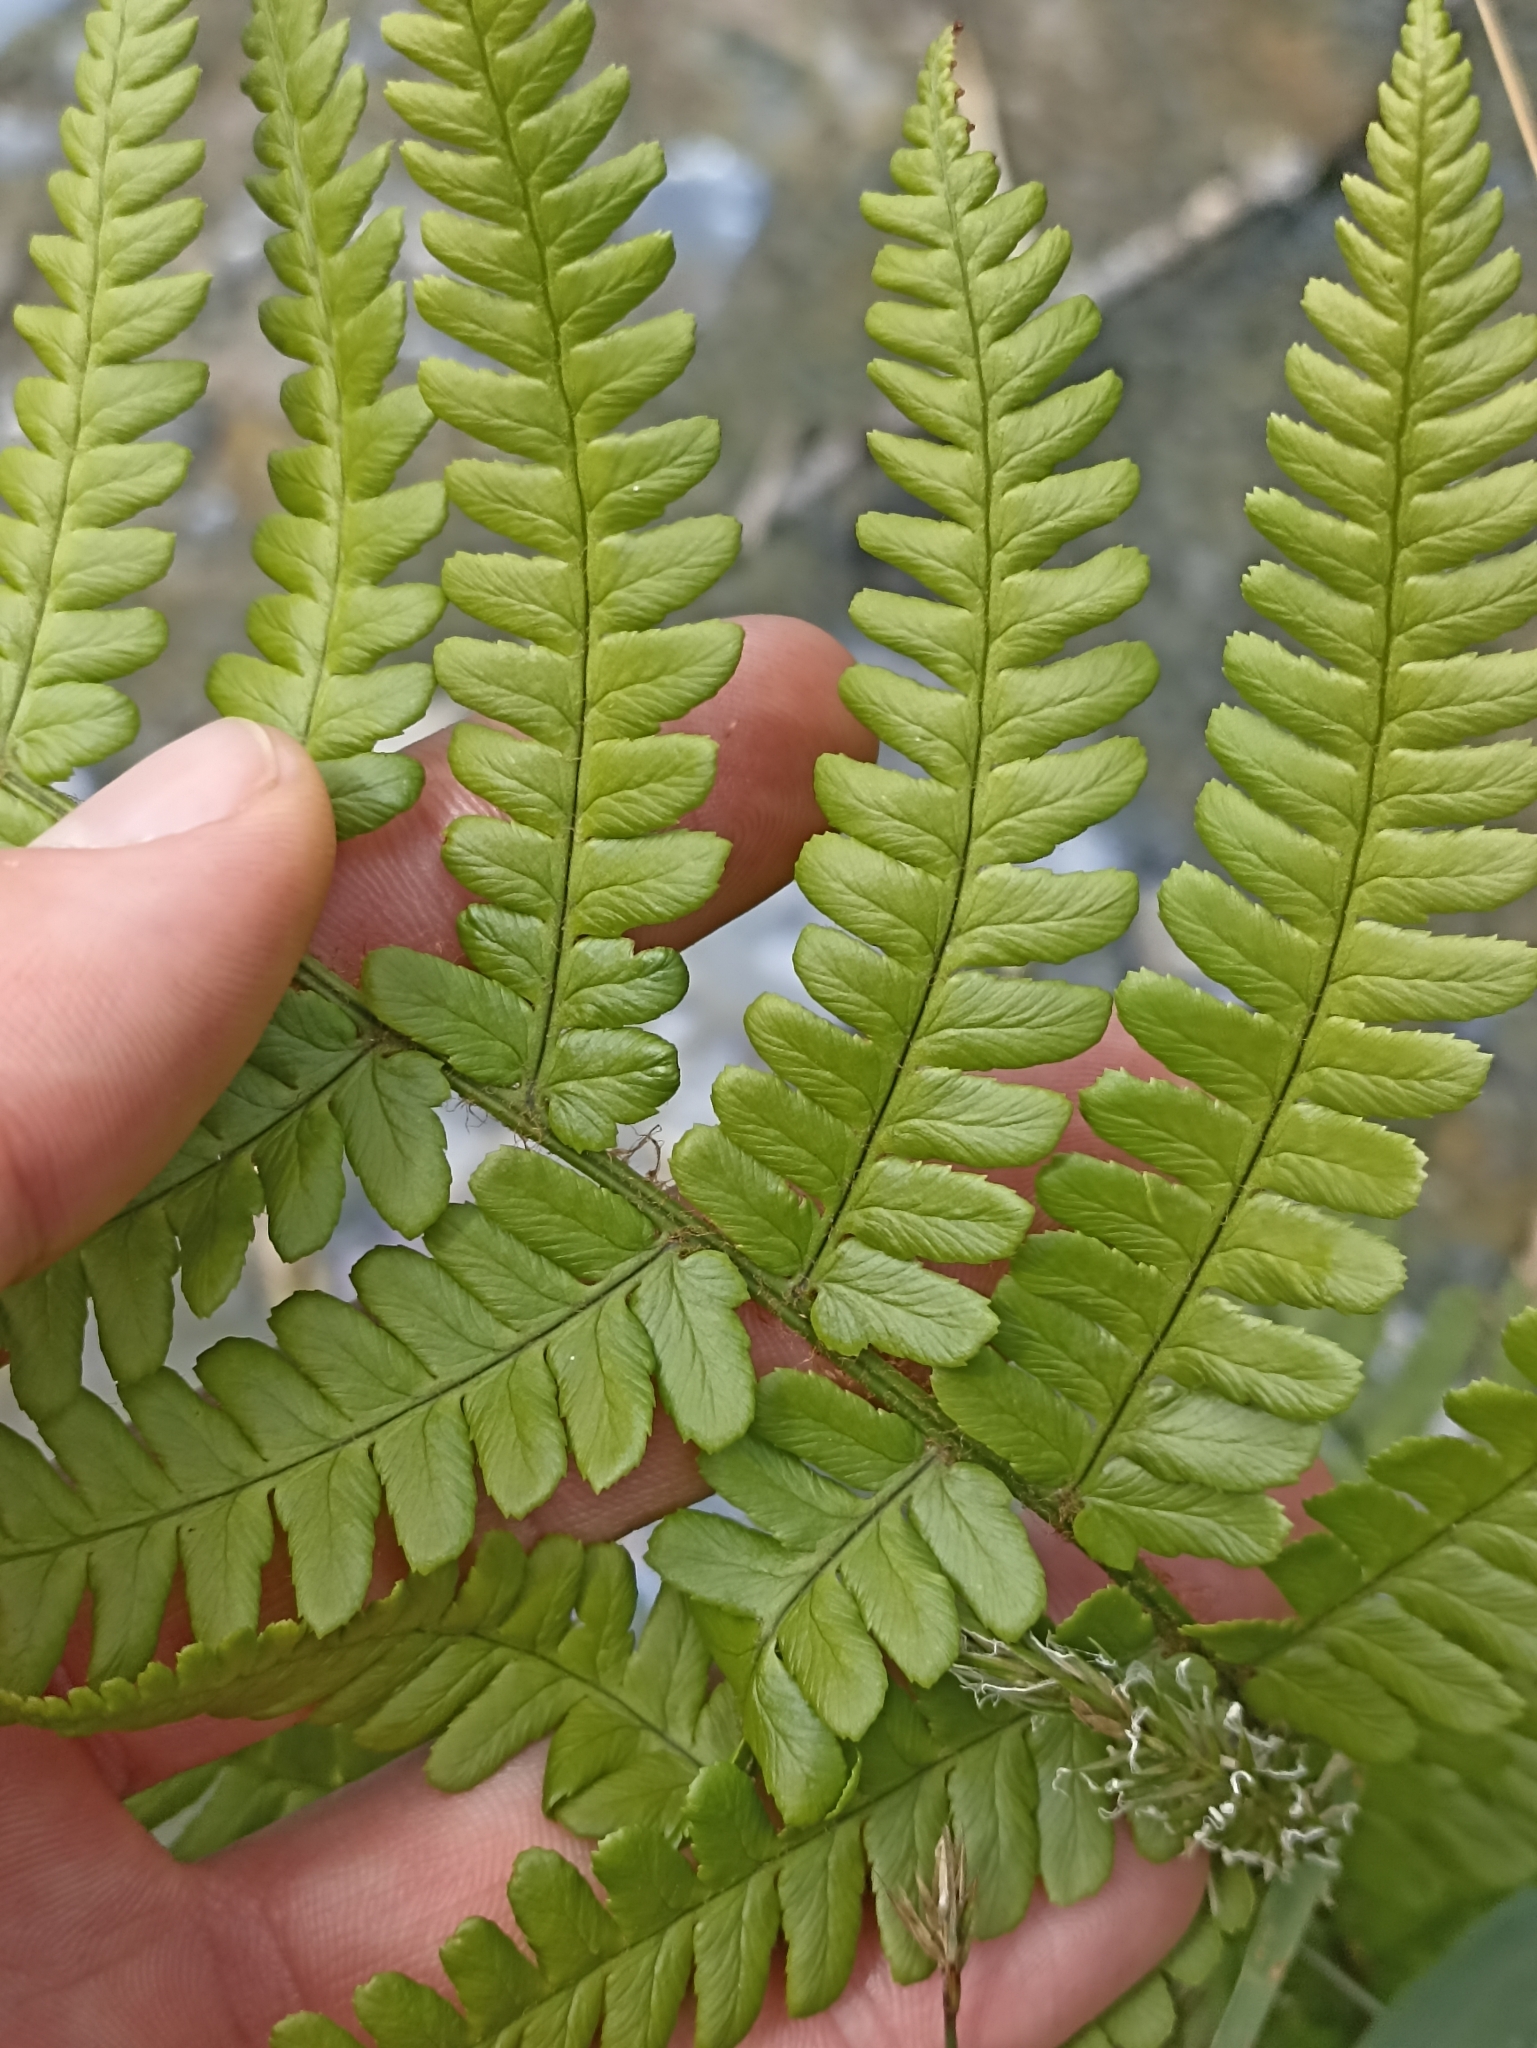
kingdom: Plantae
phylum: Tracheophyta
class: Polypodiopsida
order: Polypodiales
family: Dryopteridaceae
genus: Dryopteris
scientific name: Dryopteris filix-mas
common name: Male fern
